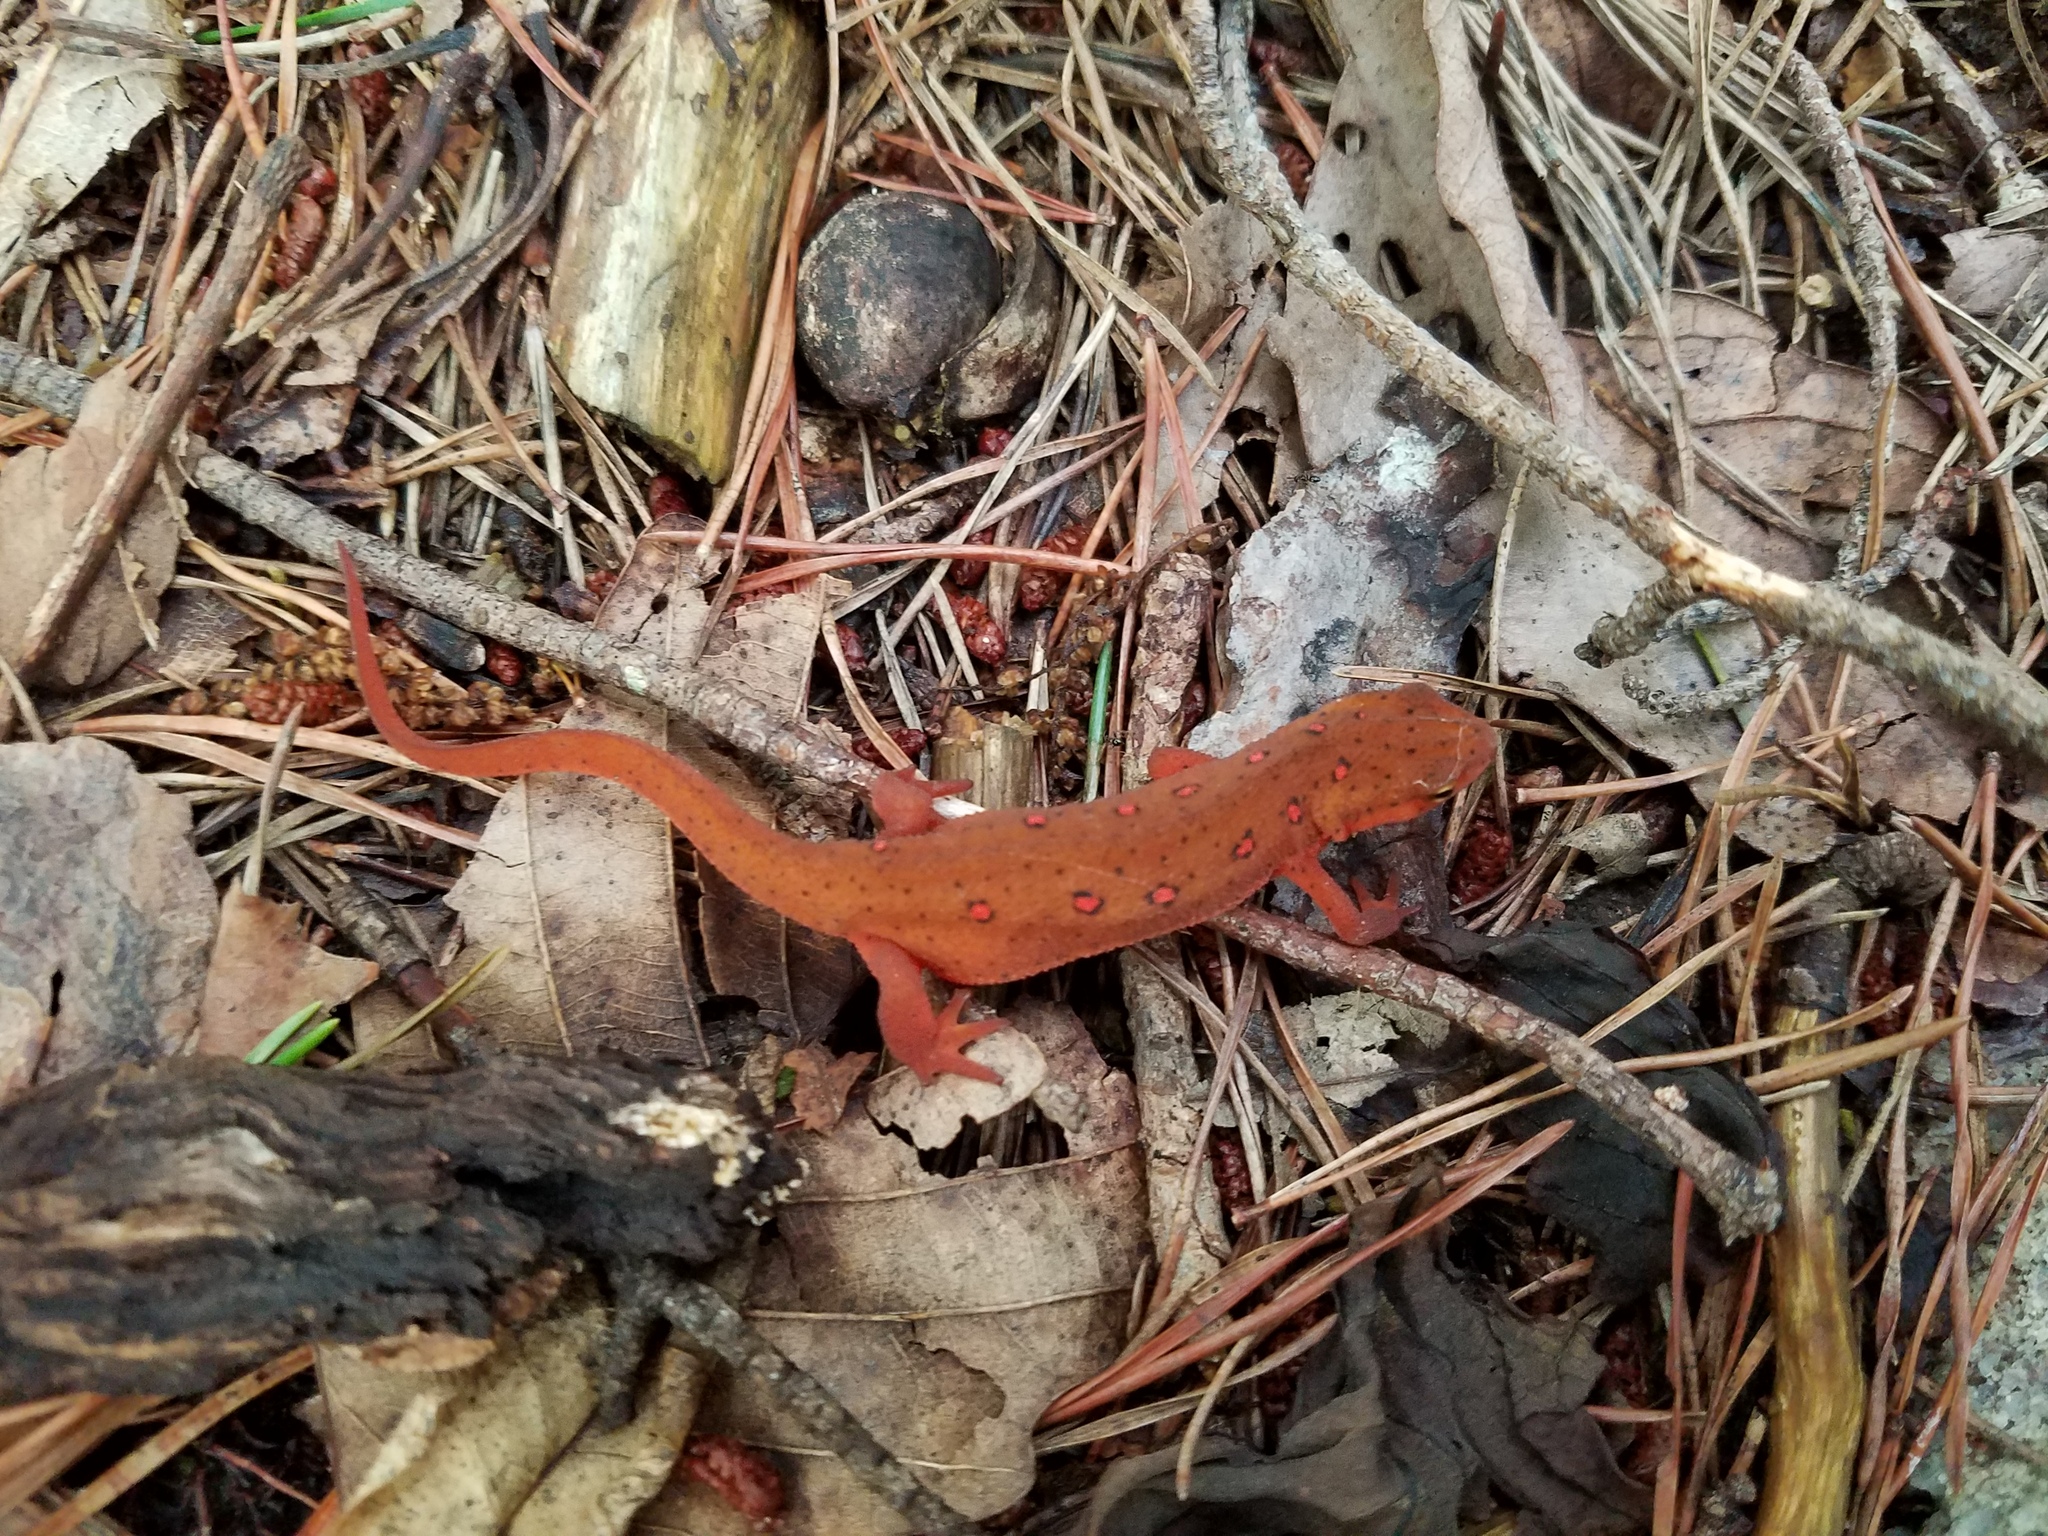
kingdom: Animalia
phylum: Chordata
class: Amphibia
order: Caudata
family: Salamandridae
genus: Notophthalmus
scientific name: Notophthalmus viridescens
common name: Eastern newt
